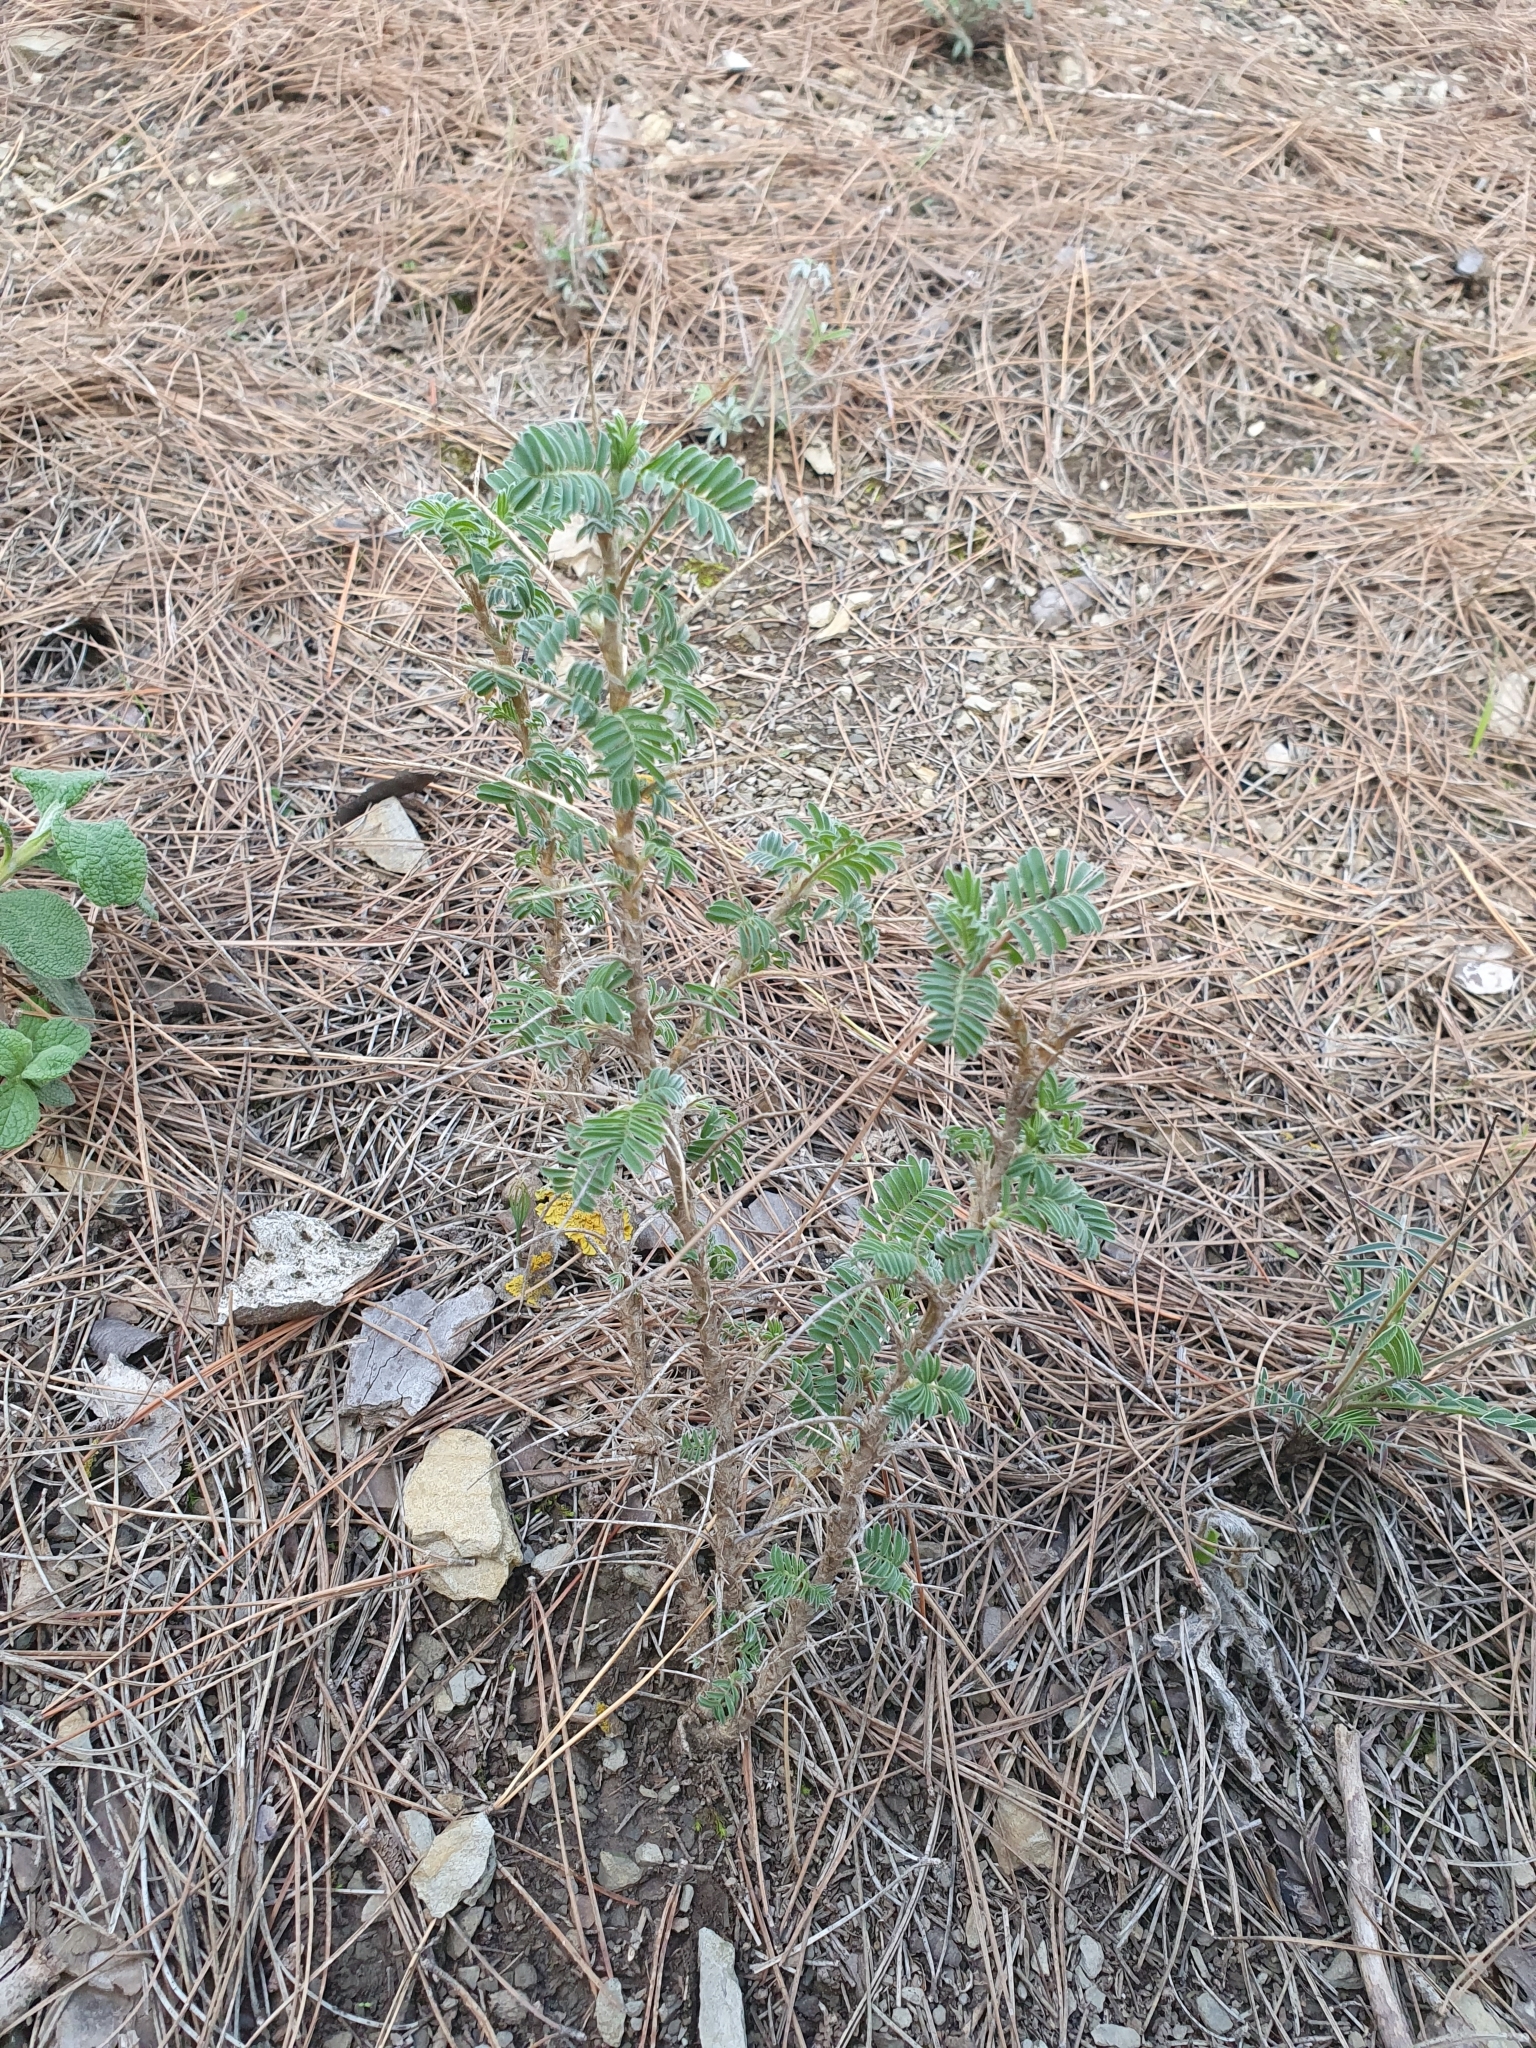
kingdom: Plantae
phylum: Tracheophyta
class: Magnoliopsida
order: Fabales
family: Fabaceae
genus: Astragalus
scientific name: Astragalus armatus
